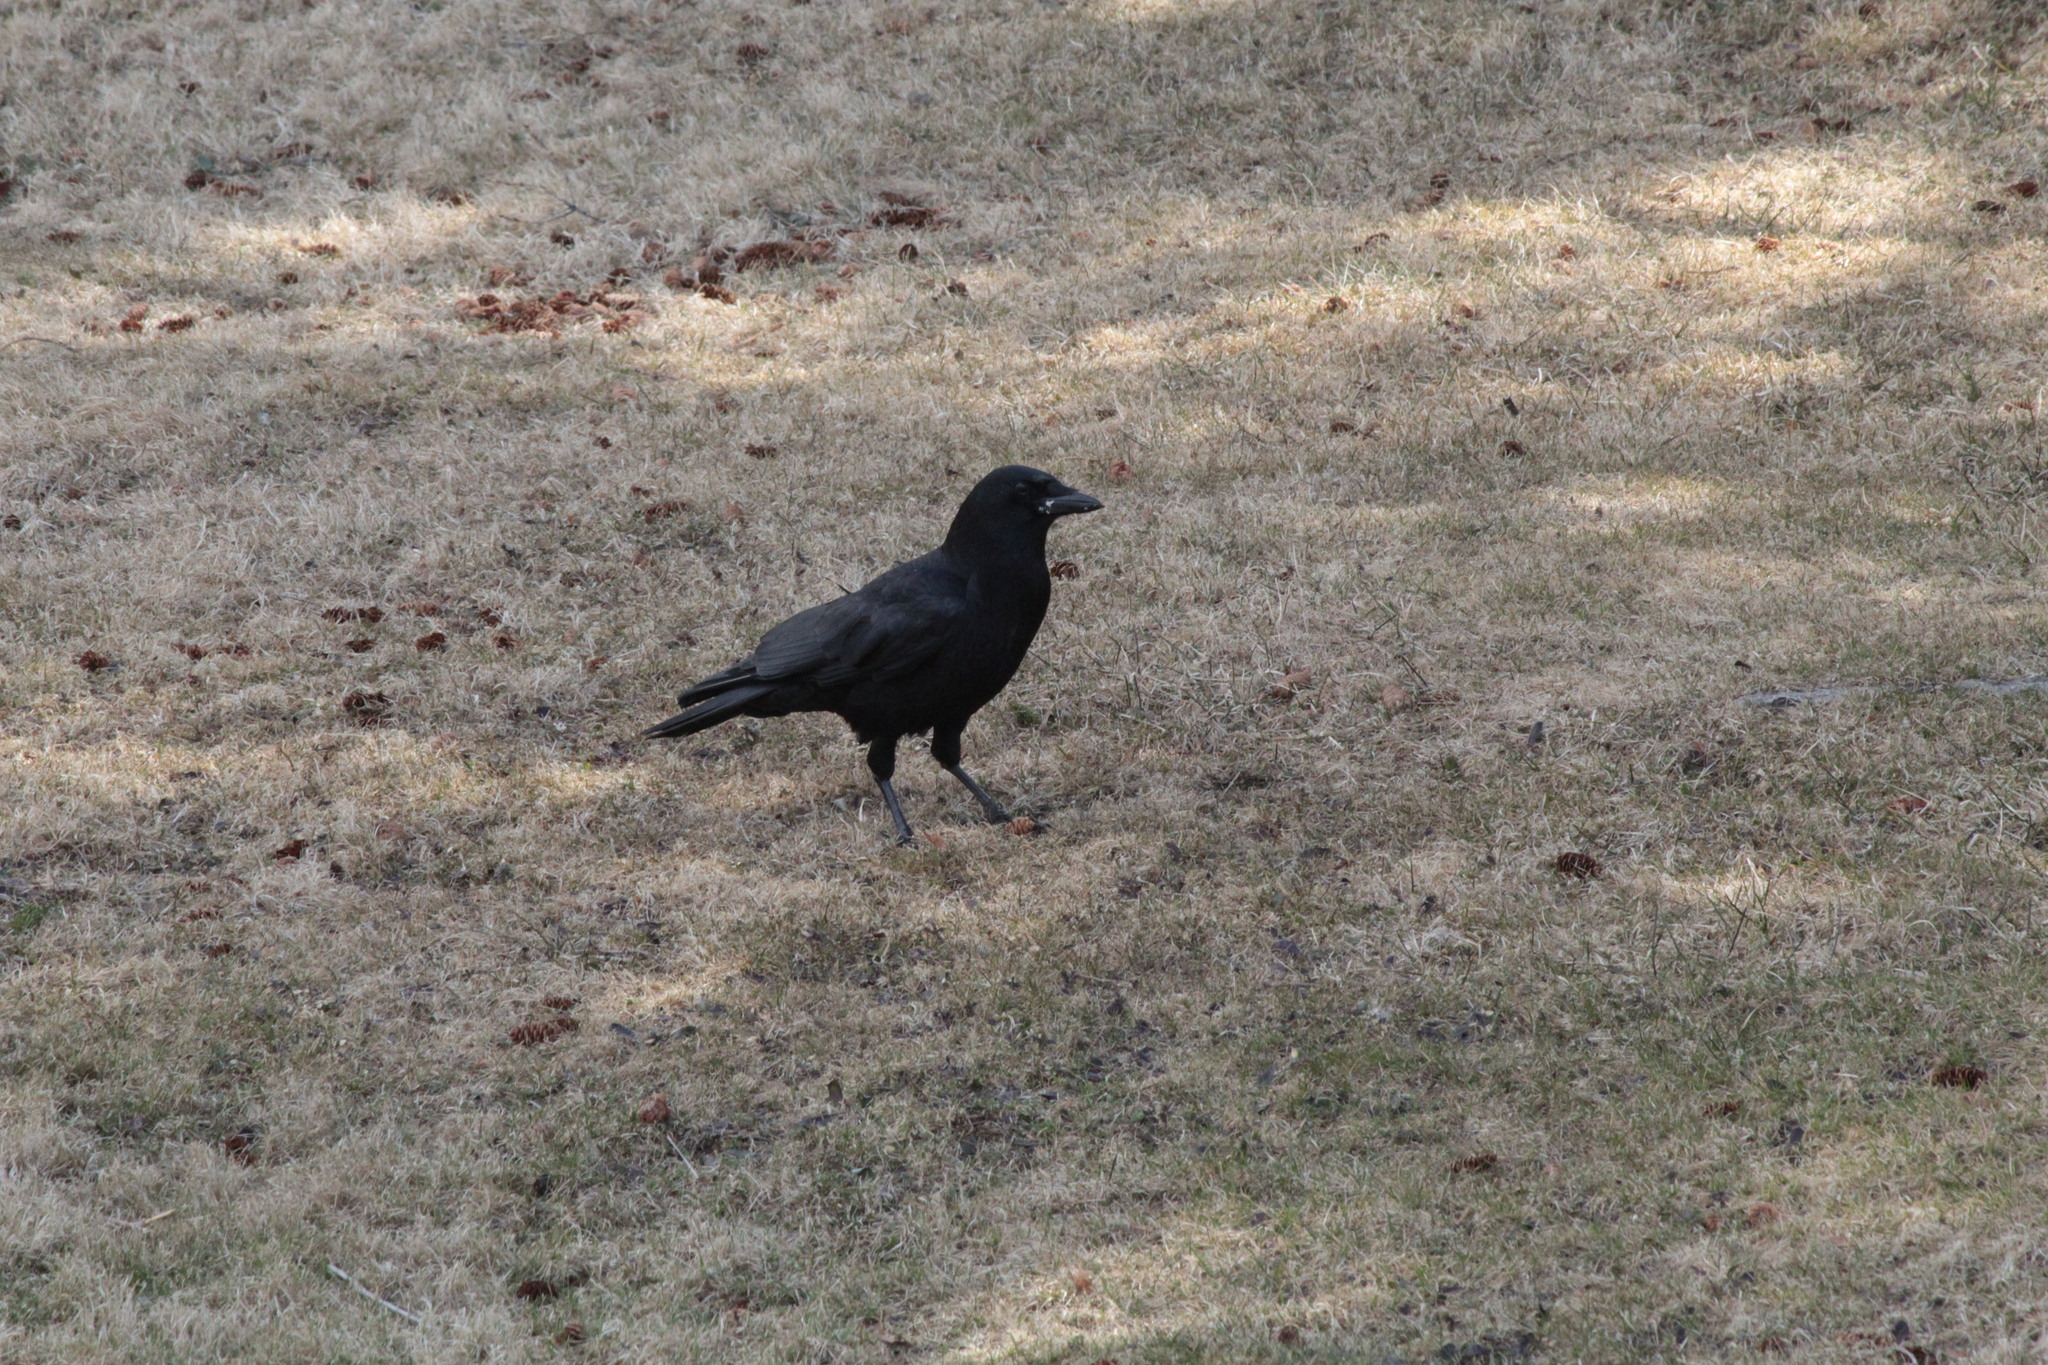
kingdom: Animalia
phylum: Chordata
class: Aves
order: Passeriformes
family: Corvidae
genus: Corvus
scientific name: Corvus brachyrhynchos
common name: American crow
